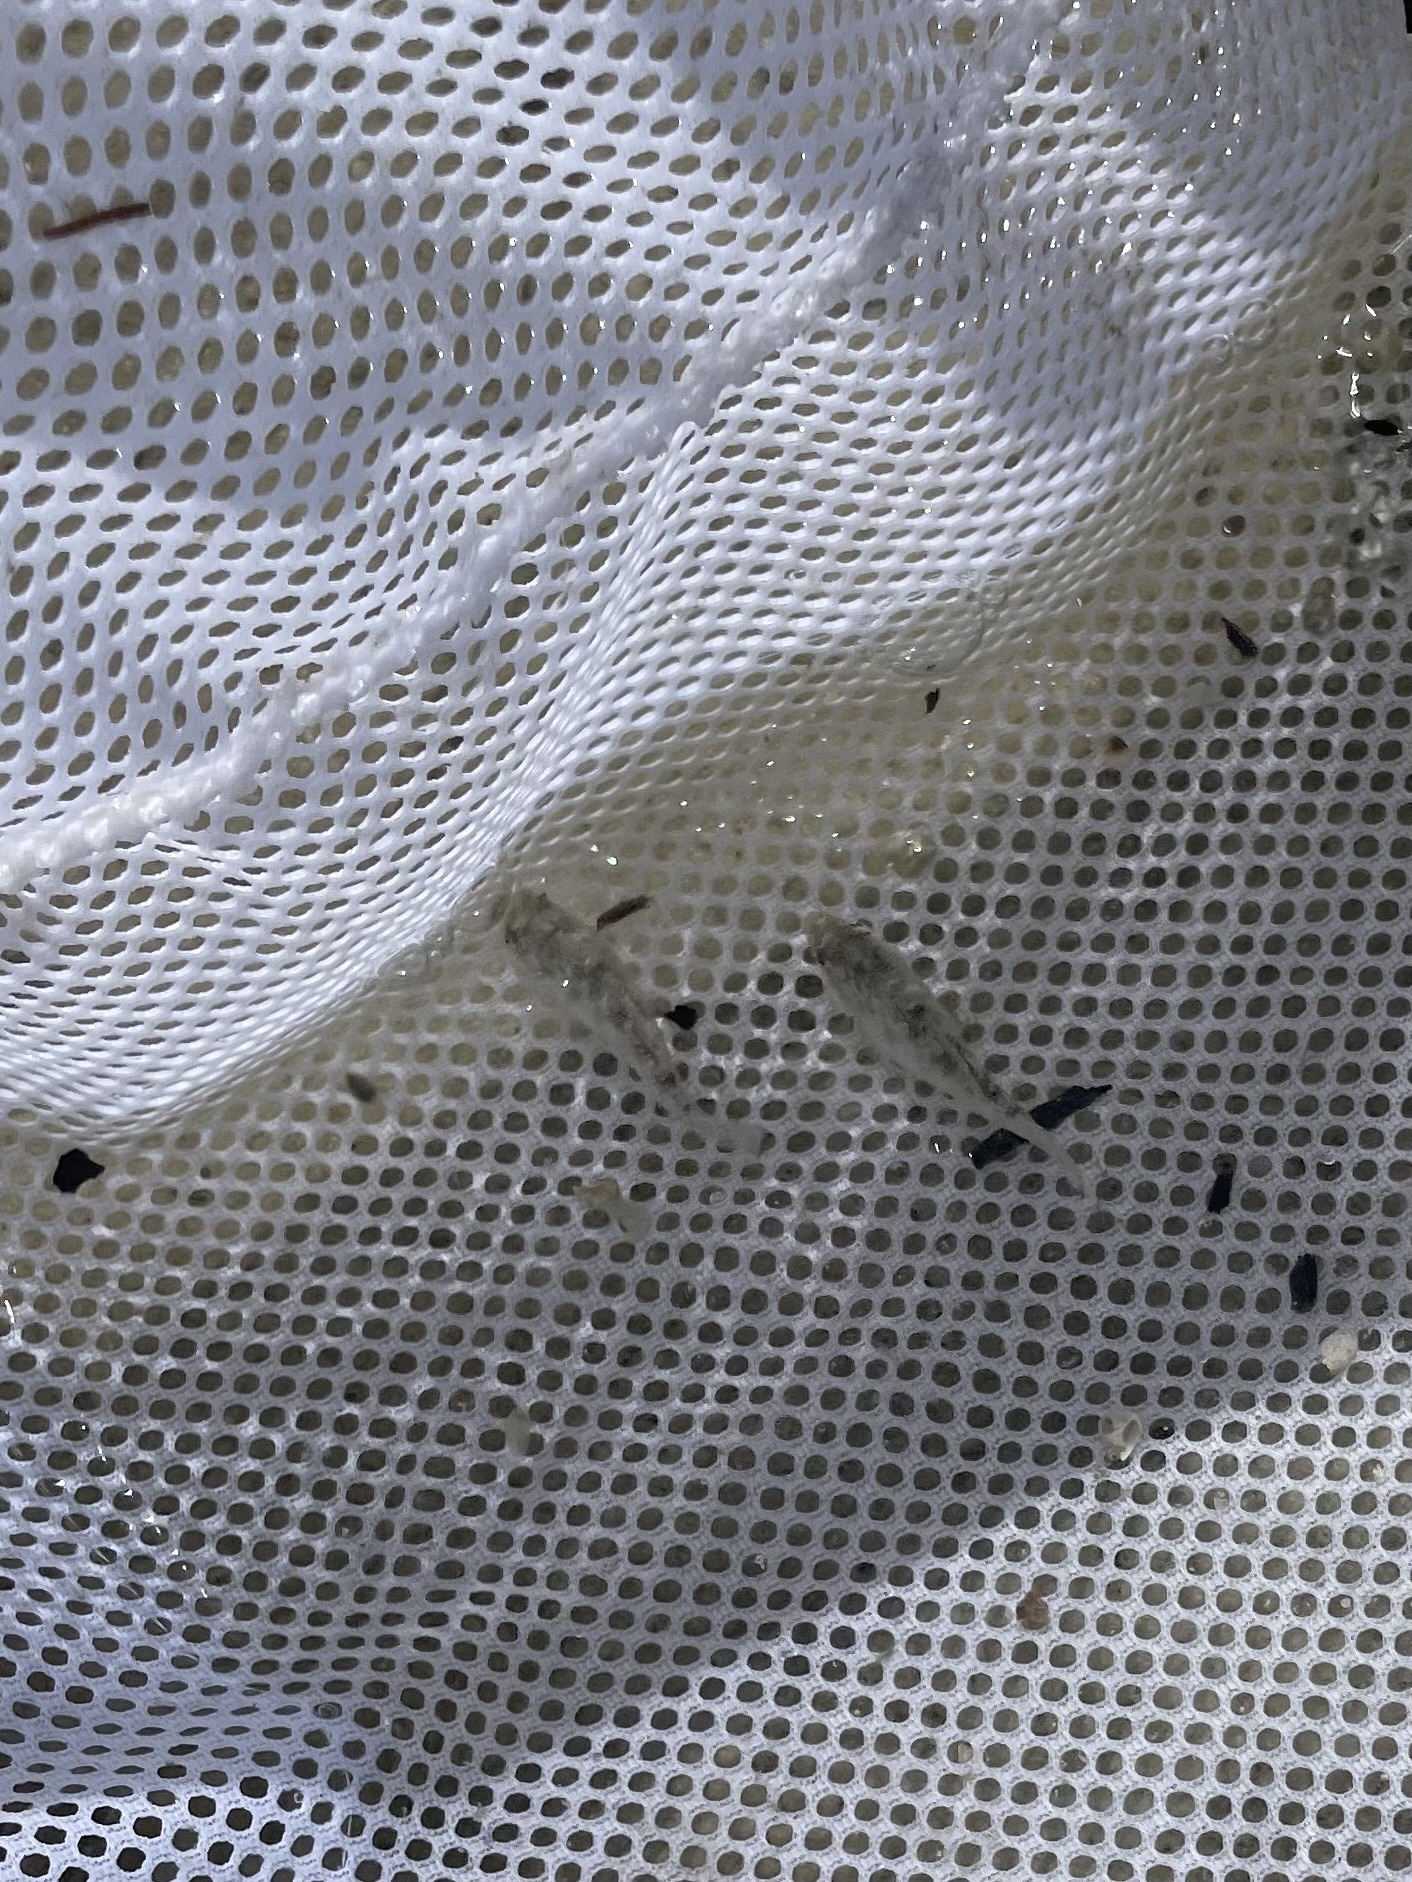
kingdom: Animalia
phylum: Chordata
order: Cyprinodontiformes
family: Cyprinodontidae
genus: Cyprinodon
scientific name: Cyprinodon variegatus
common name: Sheepshead minnow
